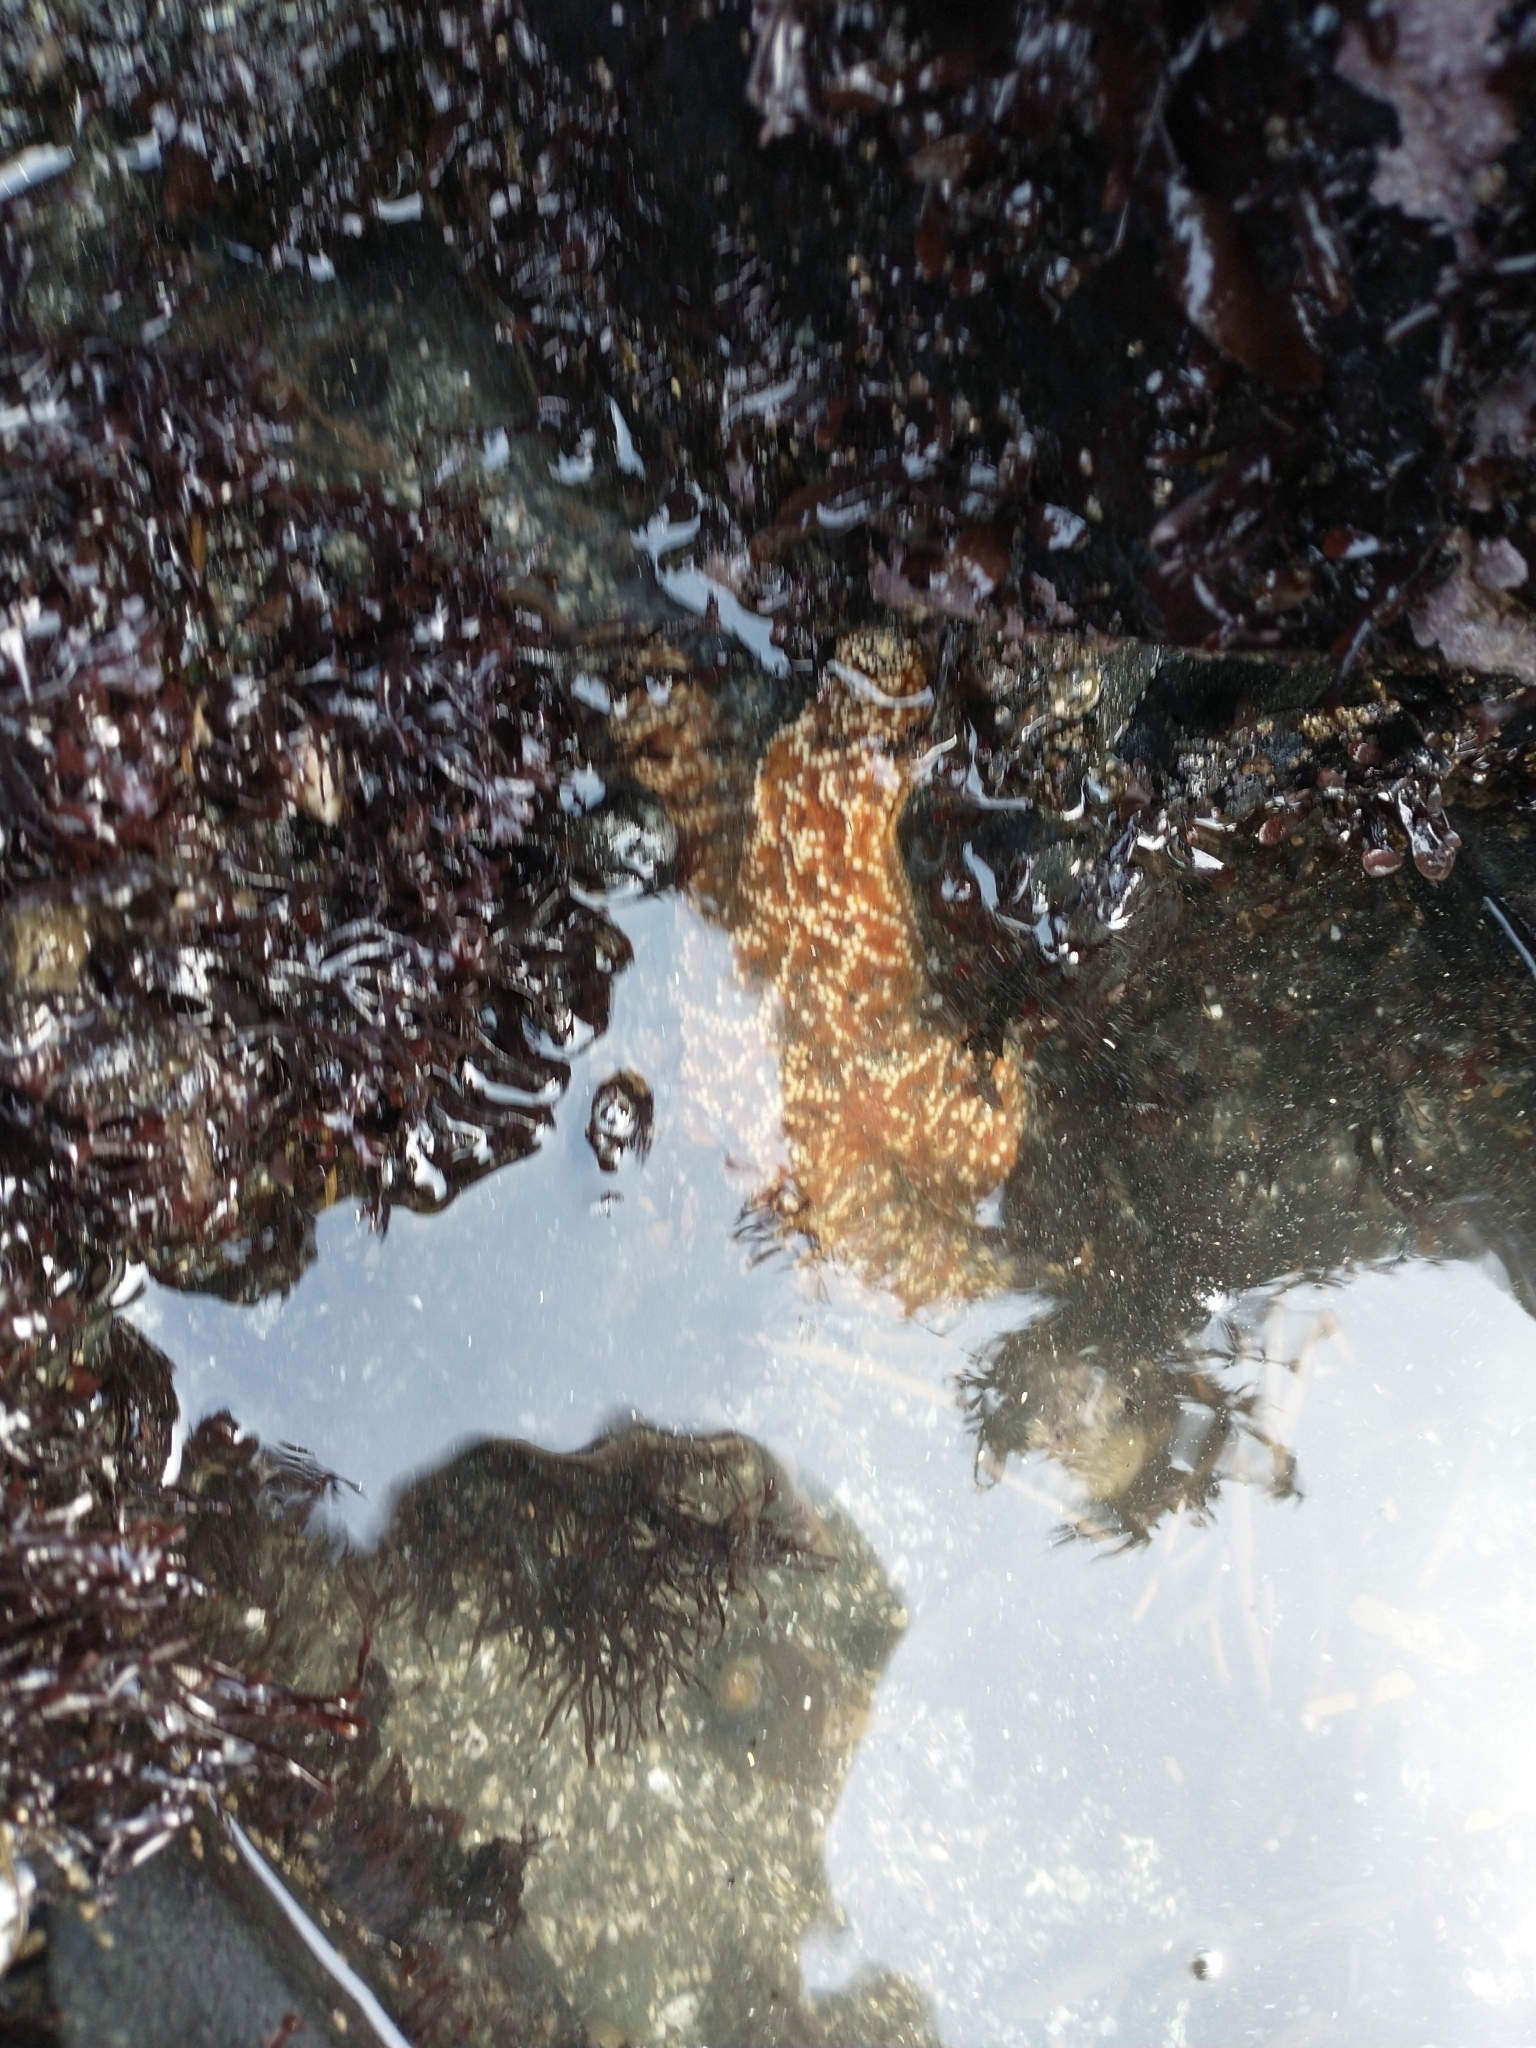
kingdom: Animalia
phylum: Echinodermata
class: Asteroidea
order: Forcipulatida
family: Asteriidae
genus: Pisaster
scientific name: Pisaster ochraceus
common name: Ochre stars
